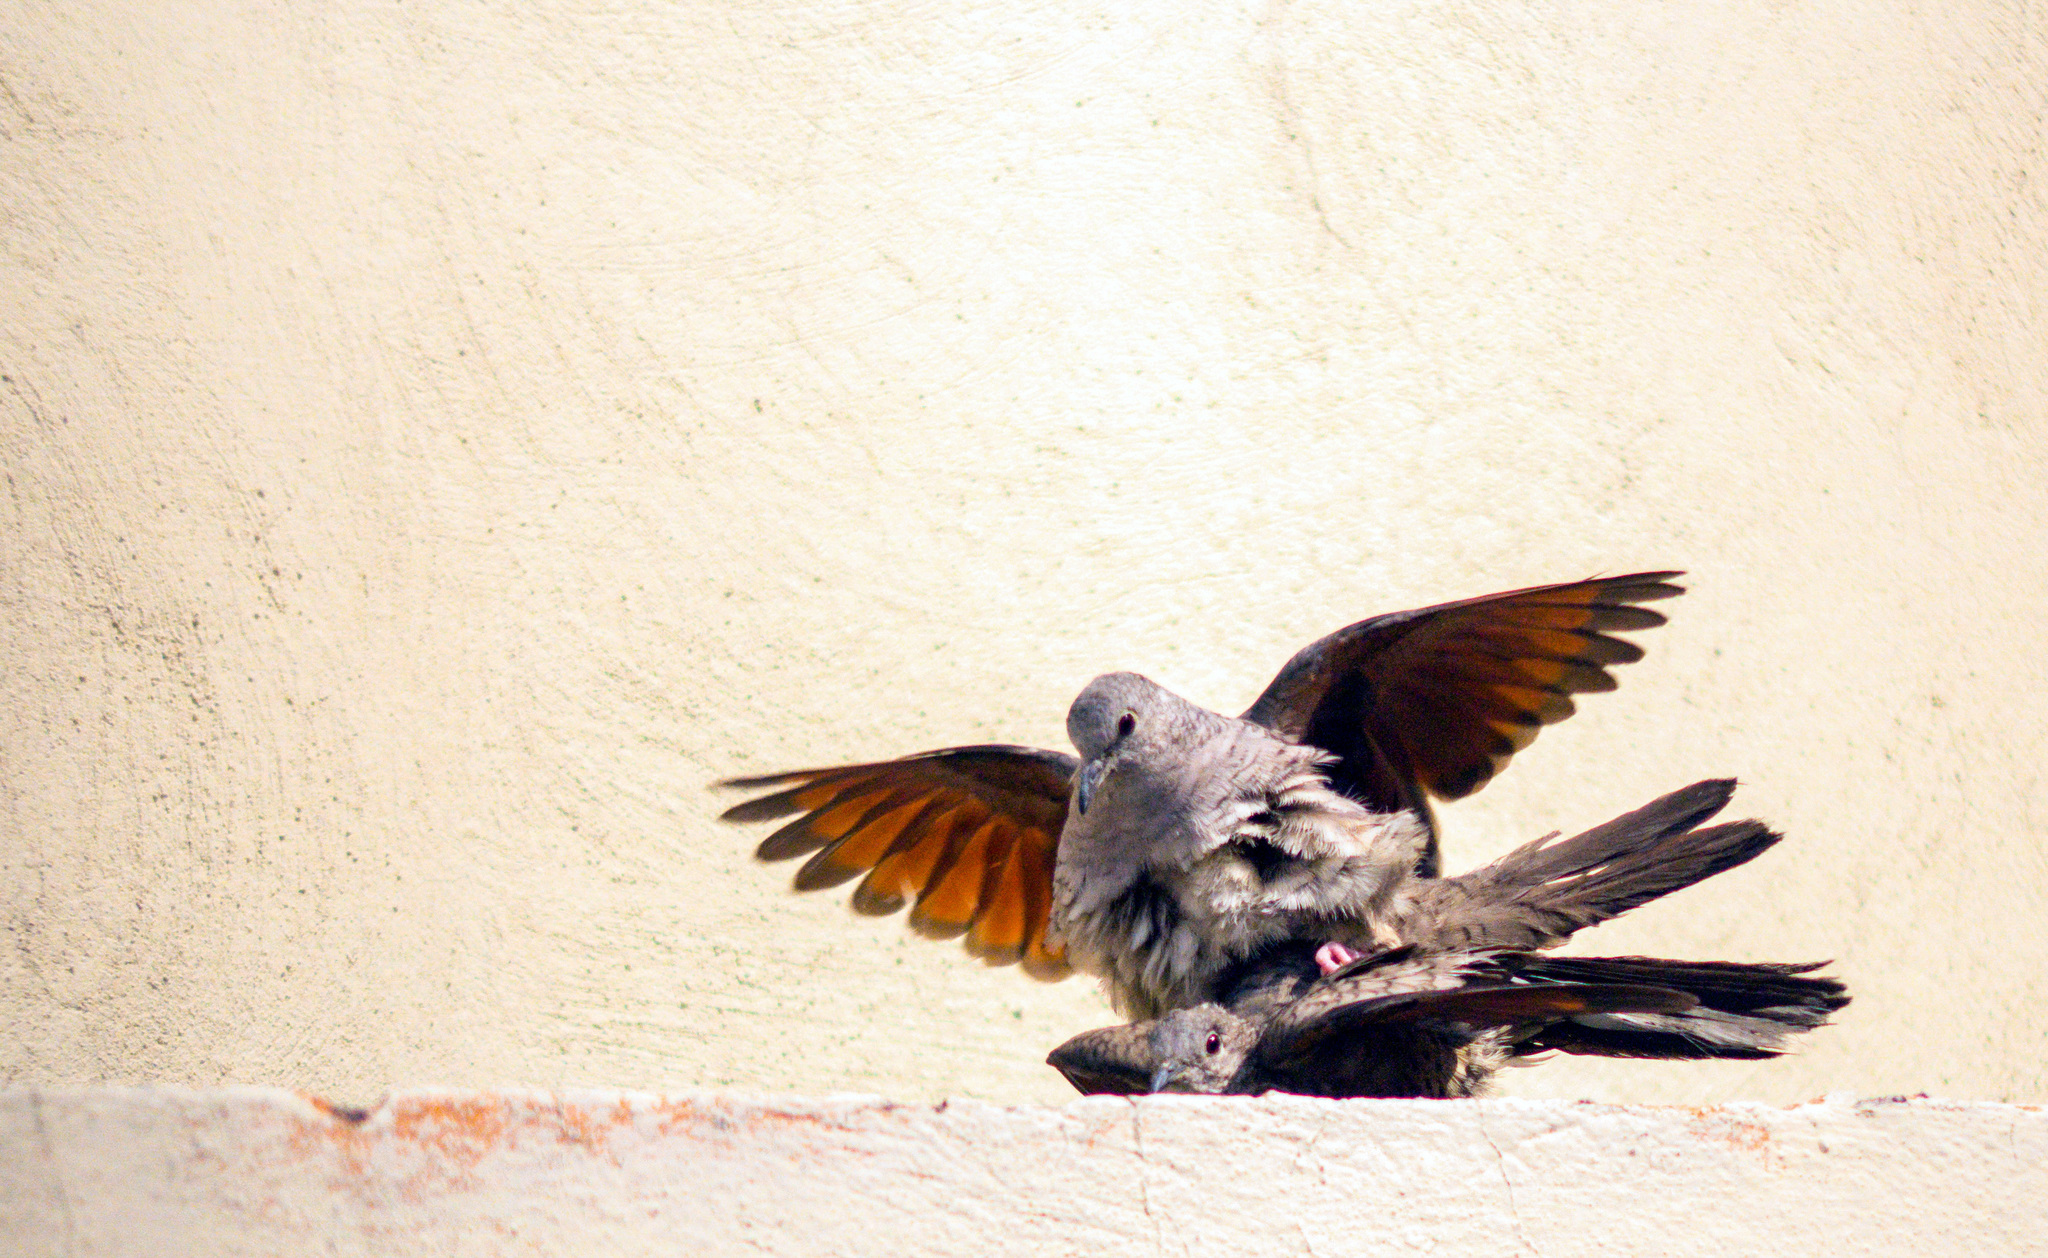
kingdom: Animalia
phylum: Chordata
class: Aves
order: Columbiformes
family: Columbidae
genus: Columbina
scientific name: Columbina inca
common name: Inca dove
